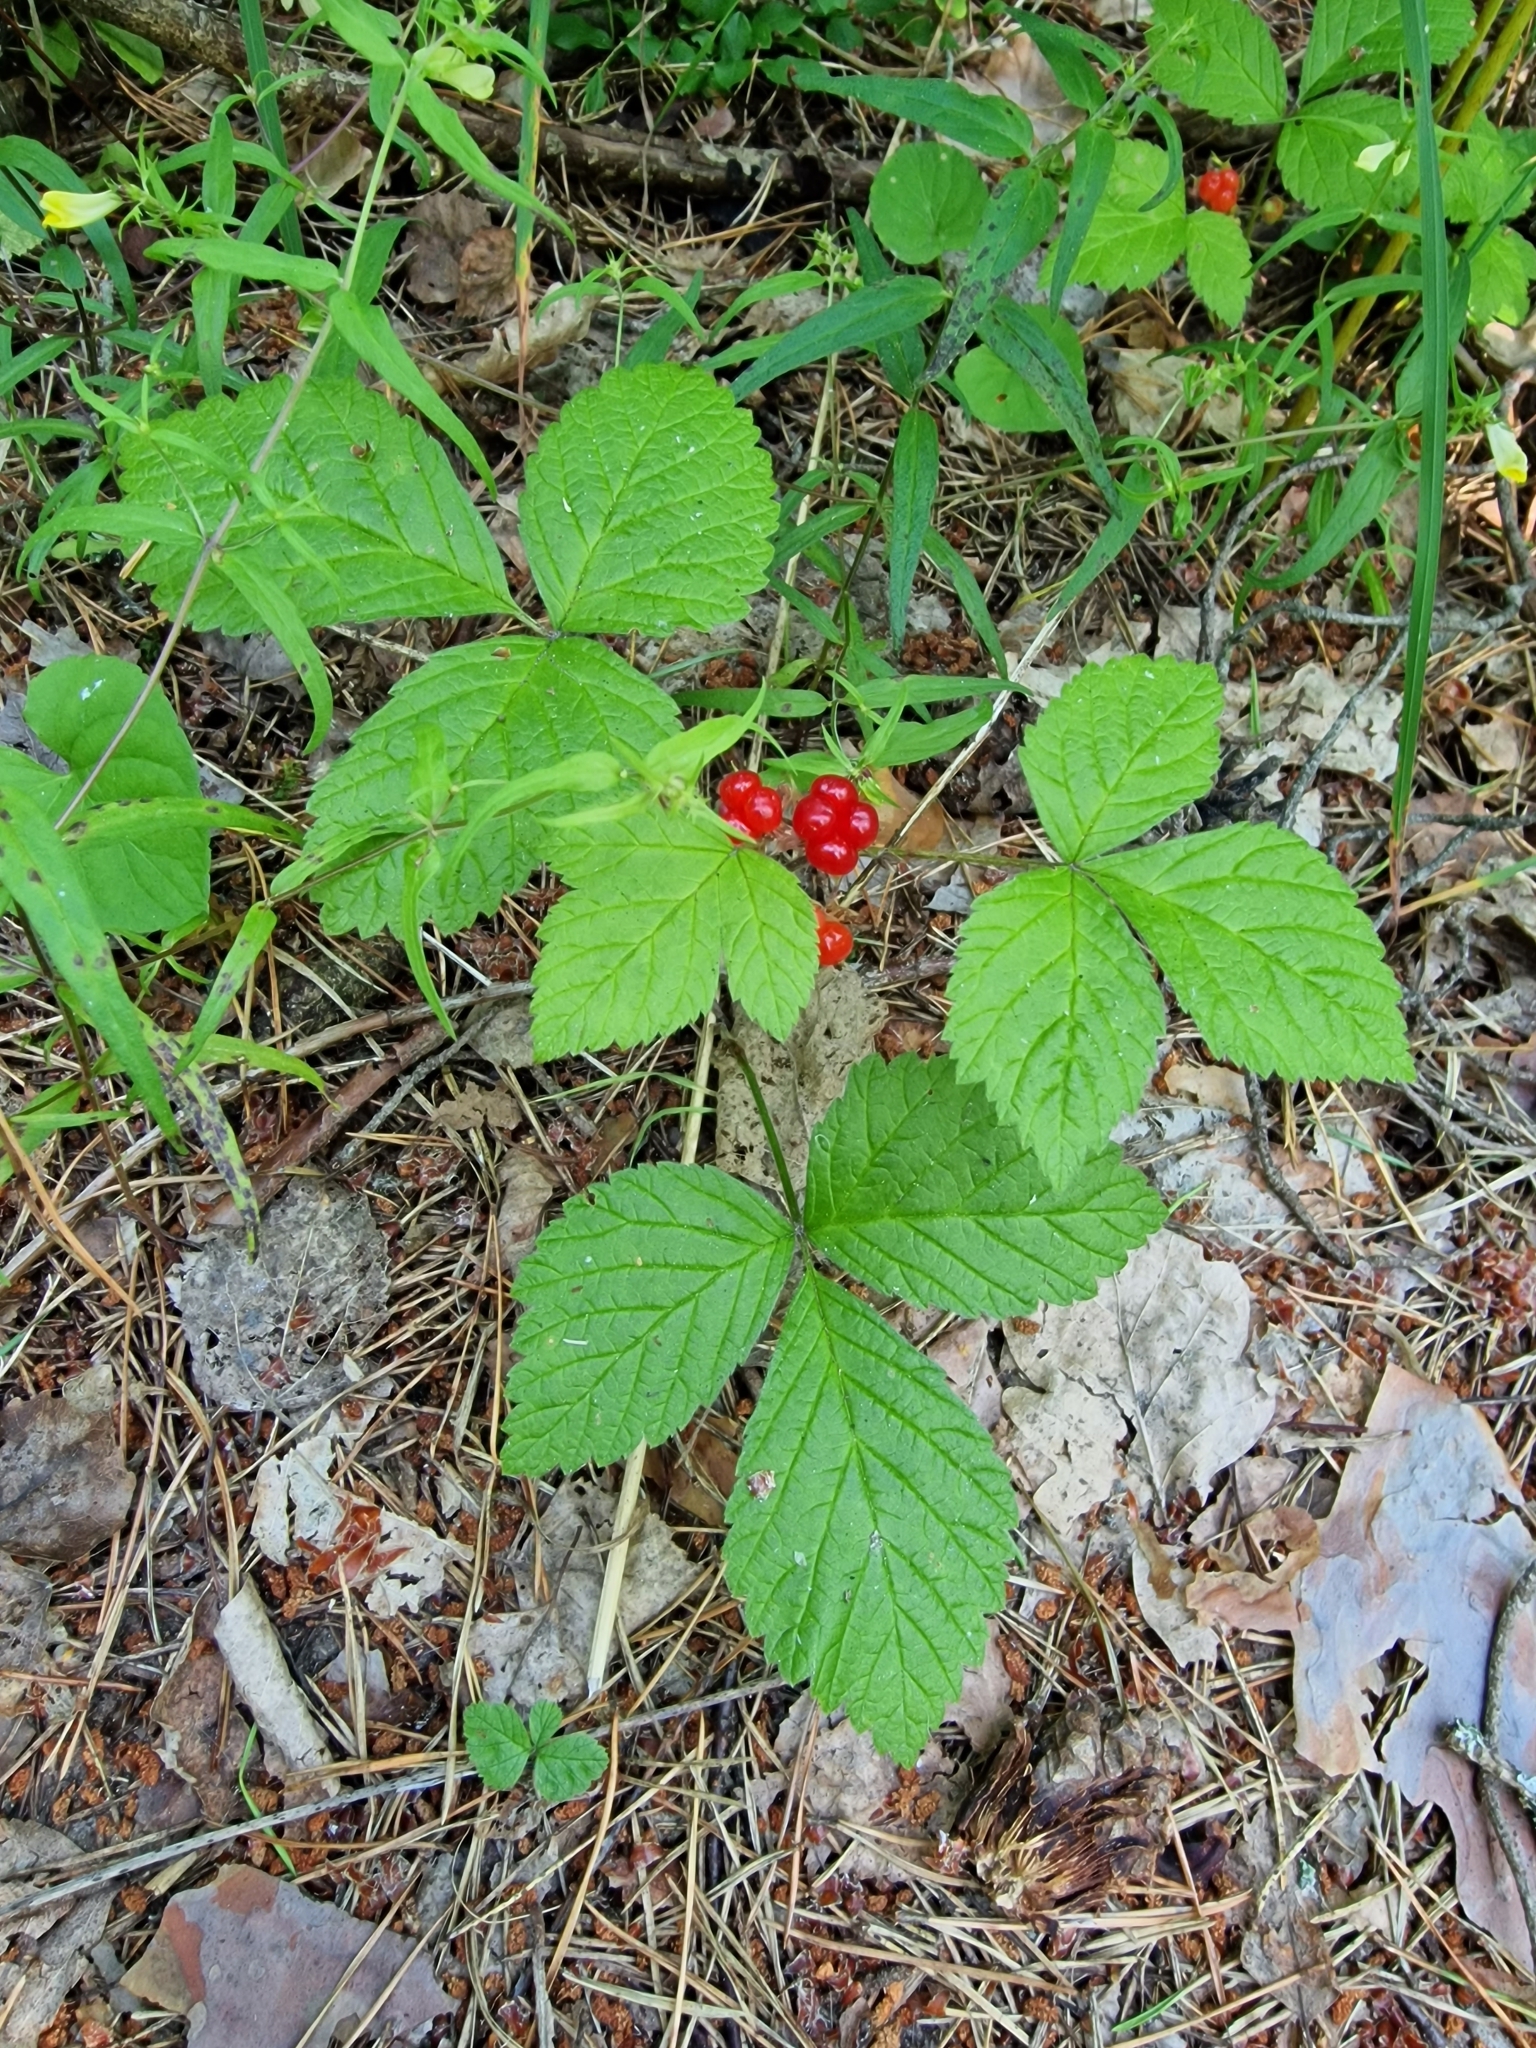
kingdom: Plantae
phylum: Tracheophyta
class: Magnoliopsida
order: Rosales
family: Rosaceae
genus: Rubus
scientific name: Rubus saxatilis
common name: Stone bramble
